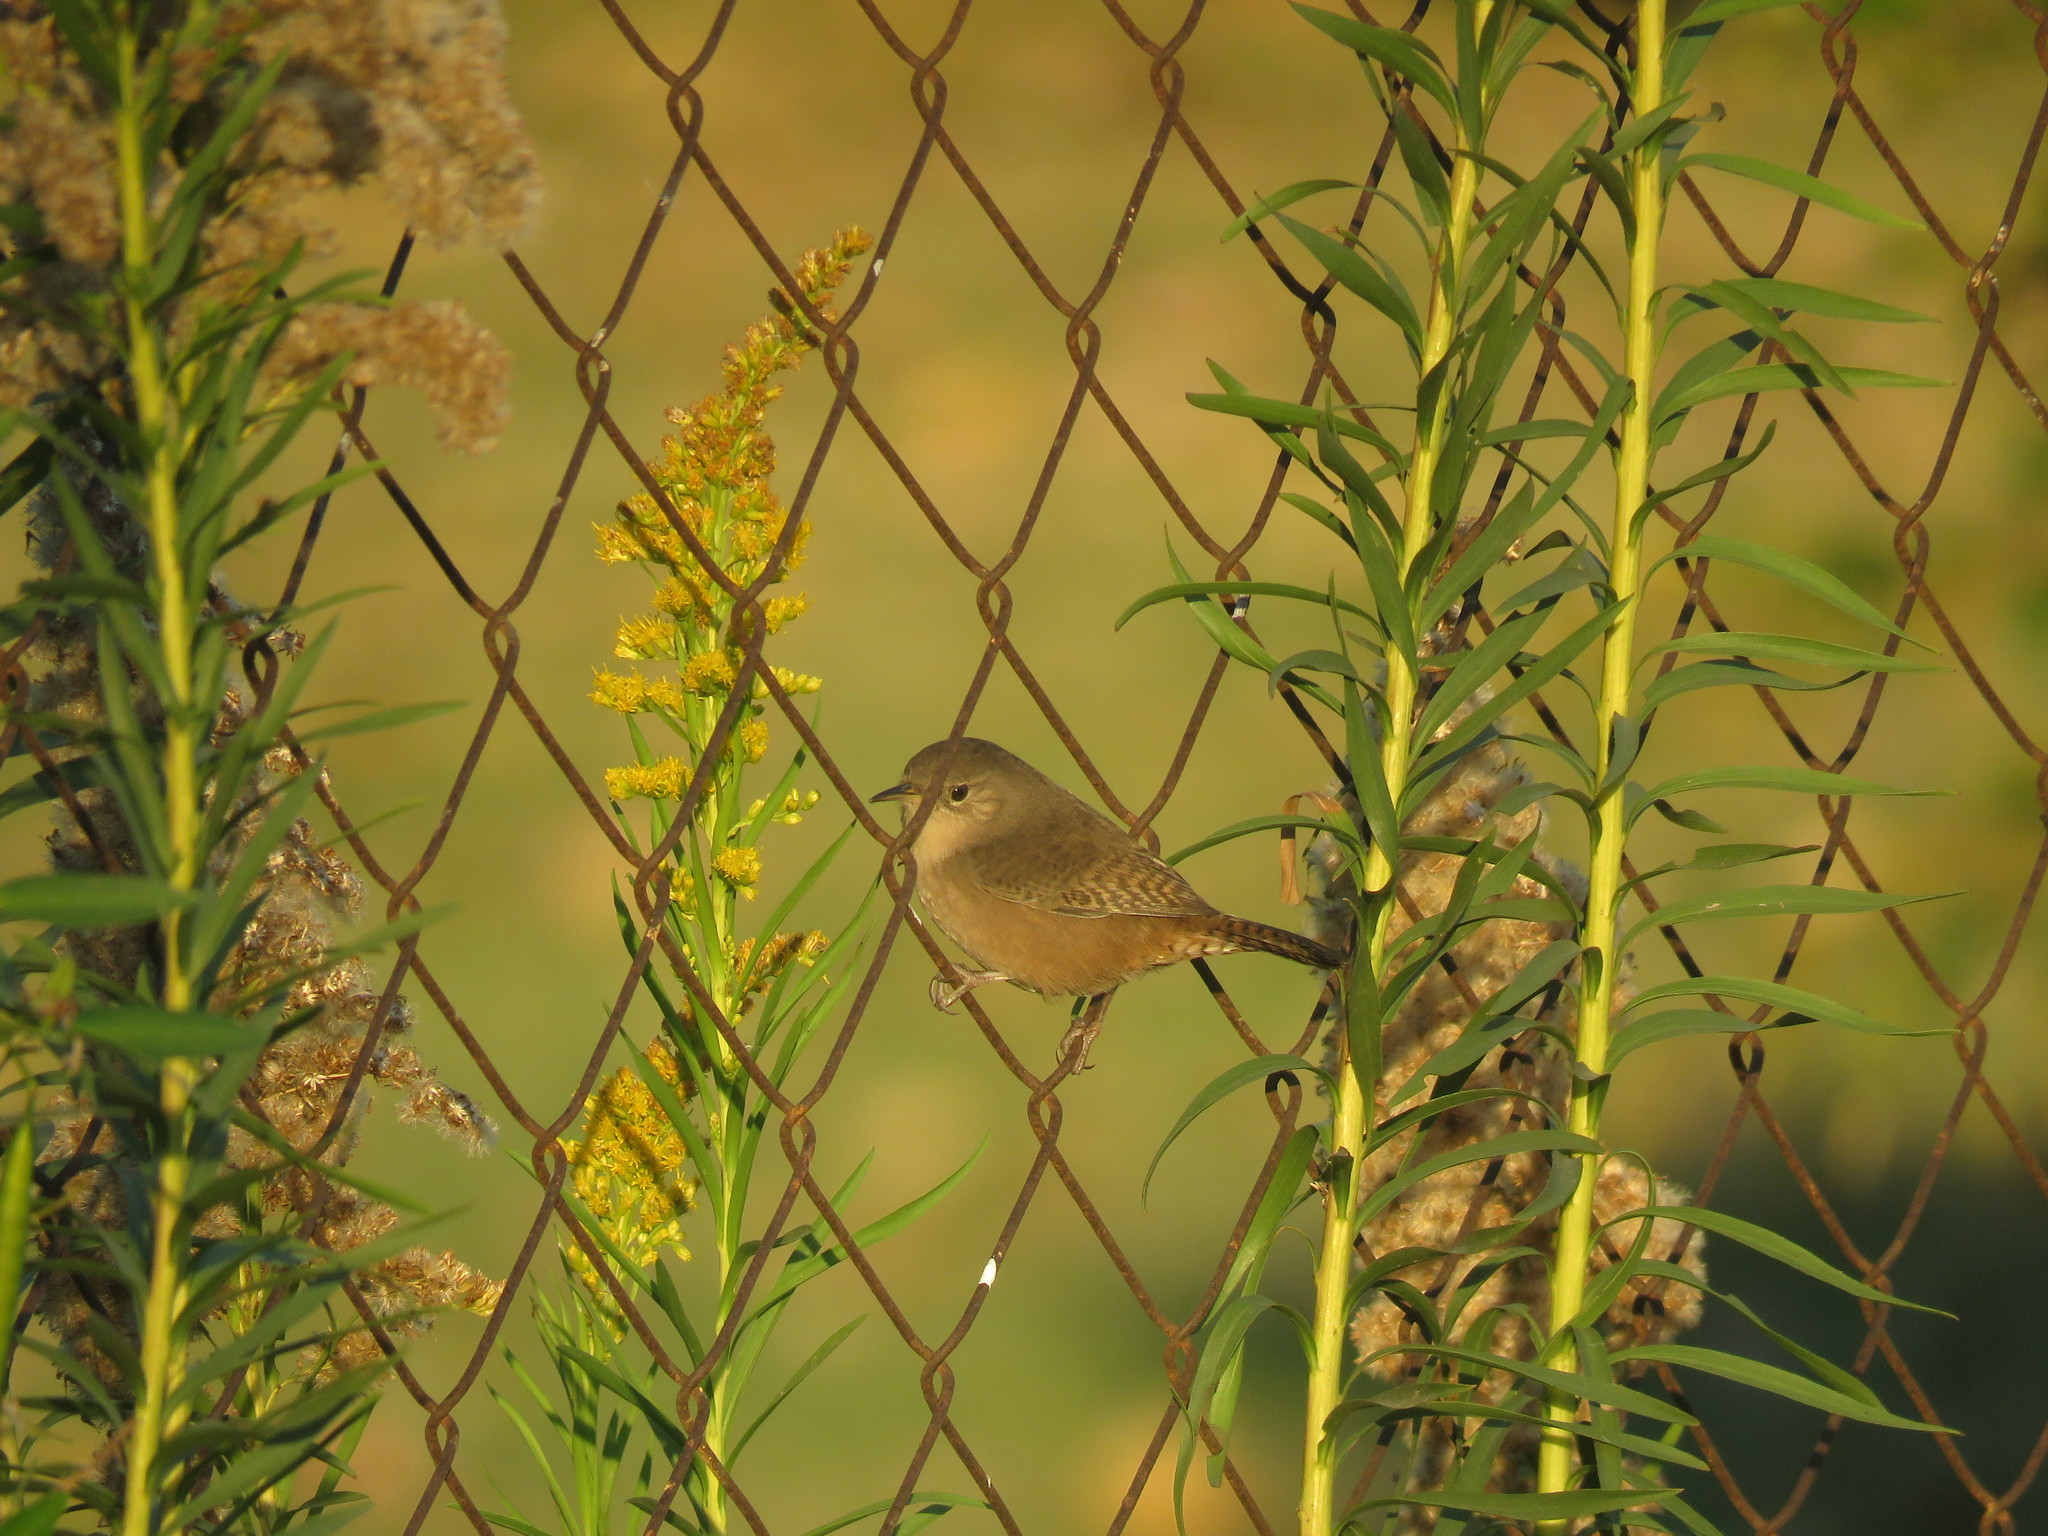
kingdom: Animalia
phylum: Chordata
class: Aves
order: Passeriformes
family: Troglodytidae
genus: Troglodytes
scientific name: Troglodytes aedon
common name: House wren
